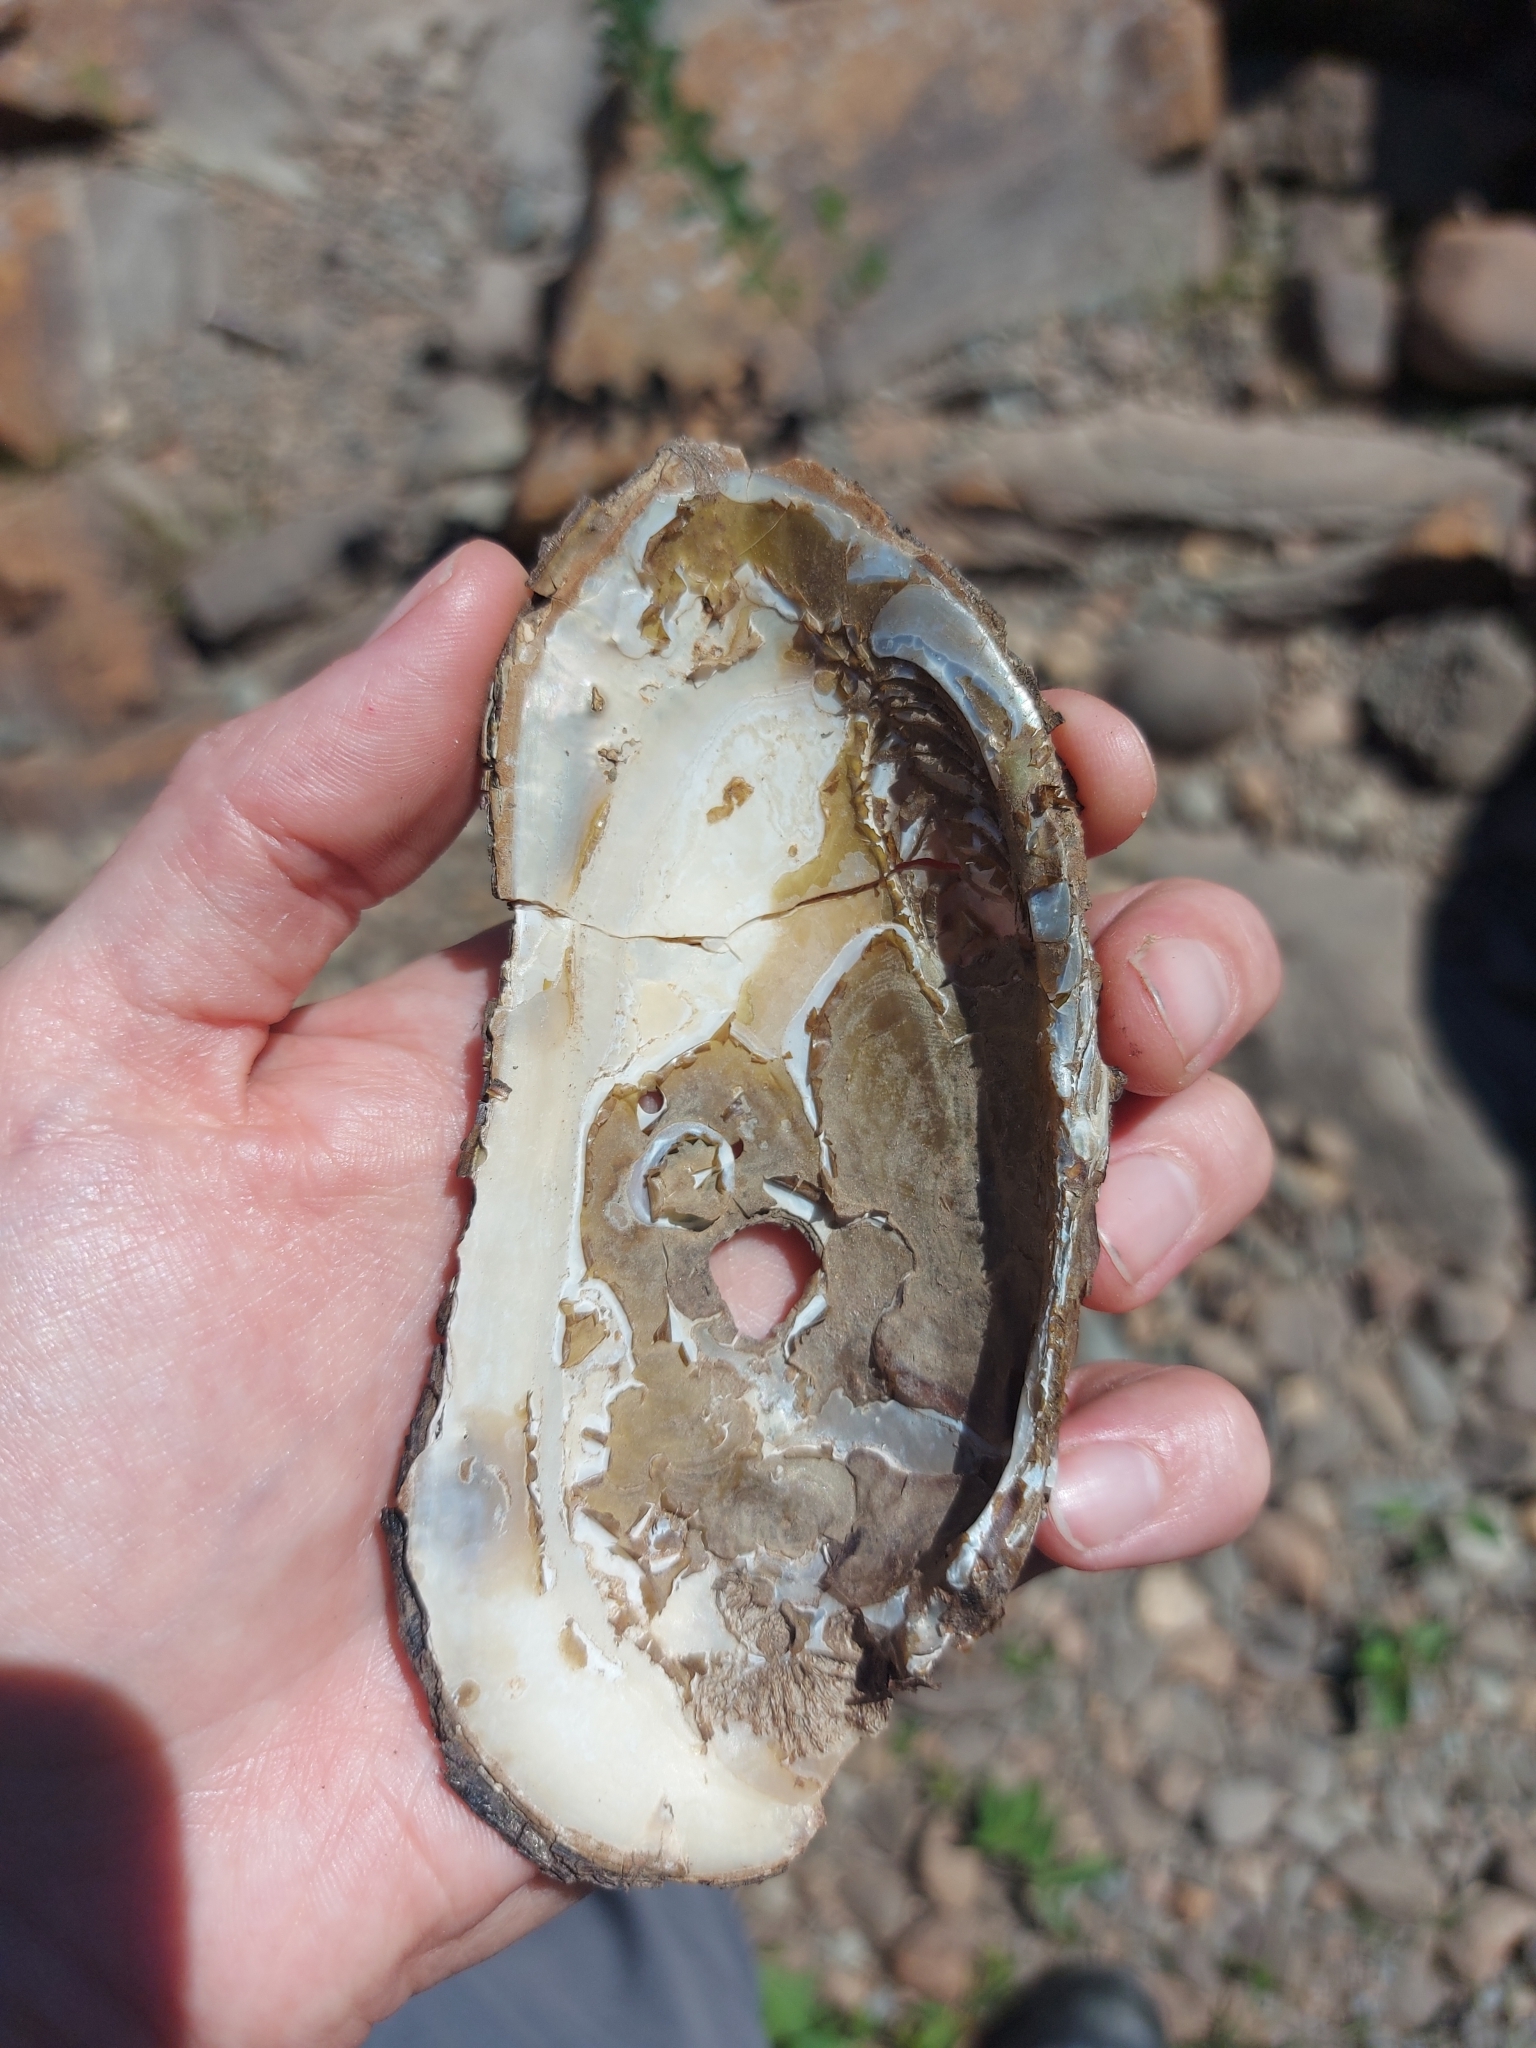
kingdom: Animalia
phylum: Mollusca
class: Bivalvia
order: Unionida
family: Margaritiferidae
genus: Margaritifera
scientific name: Margaritifera margaritifera
